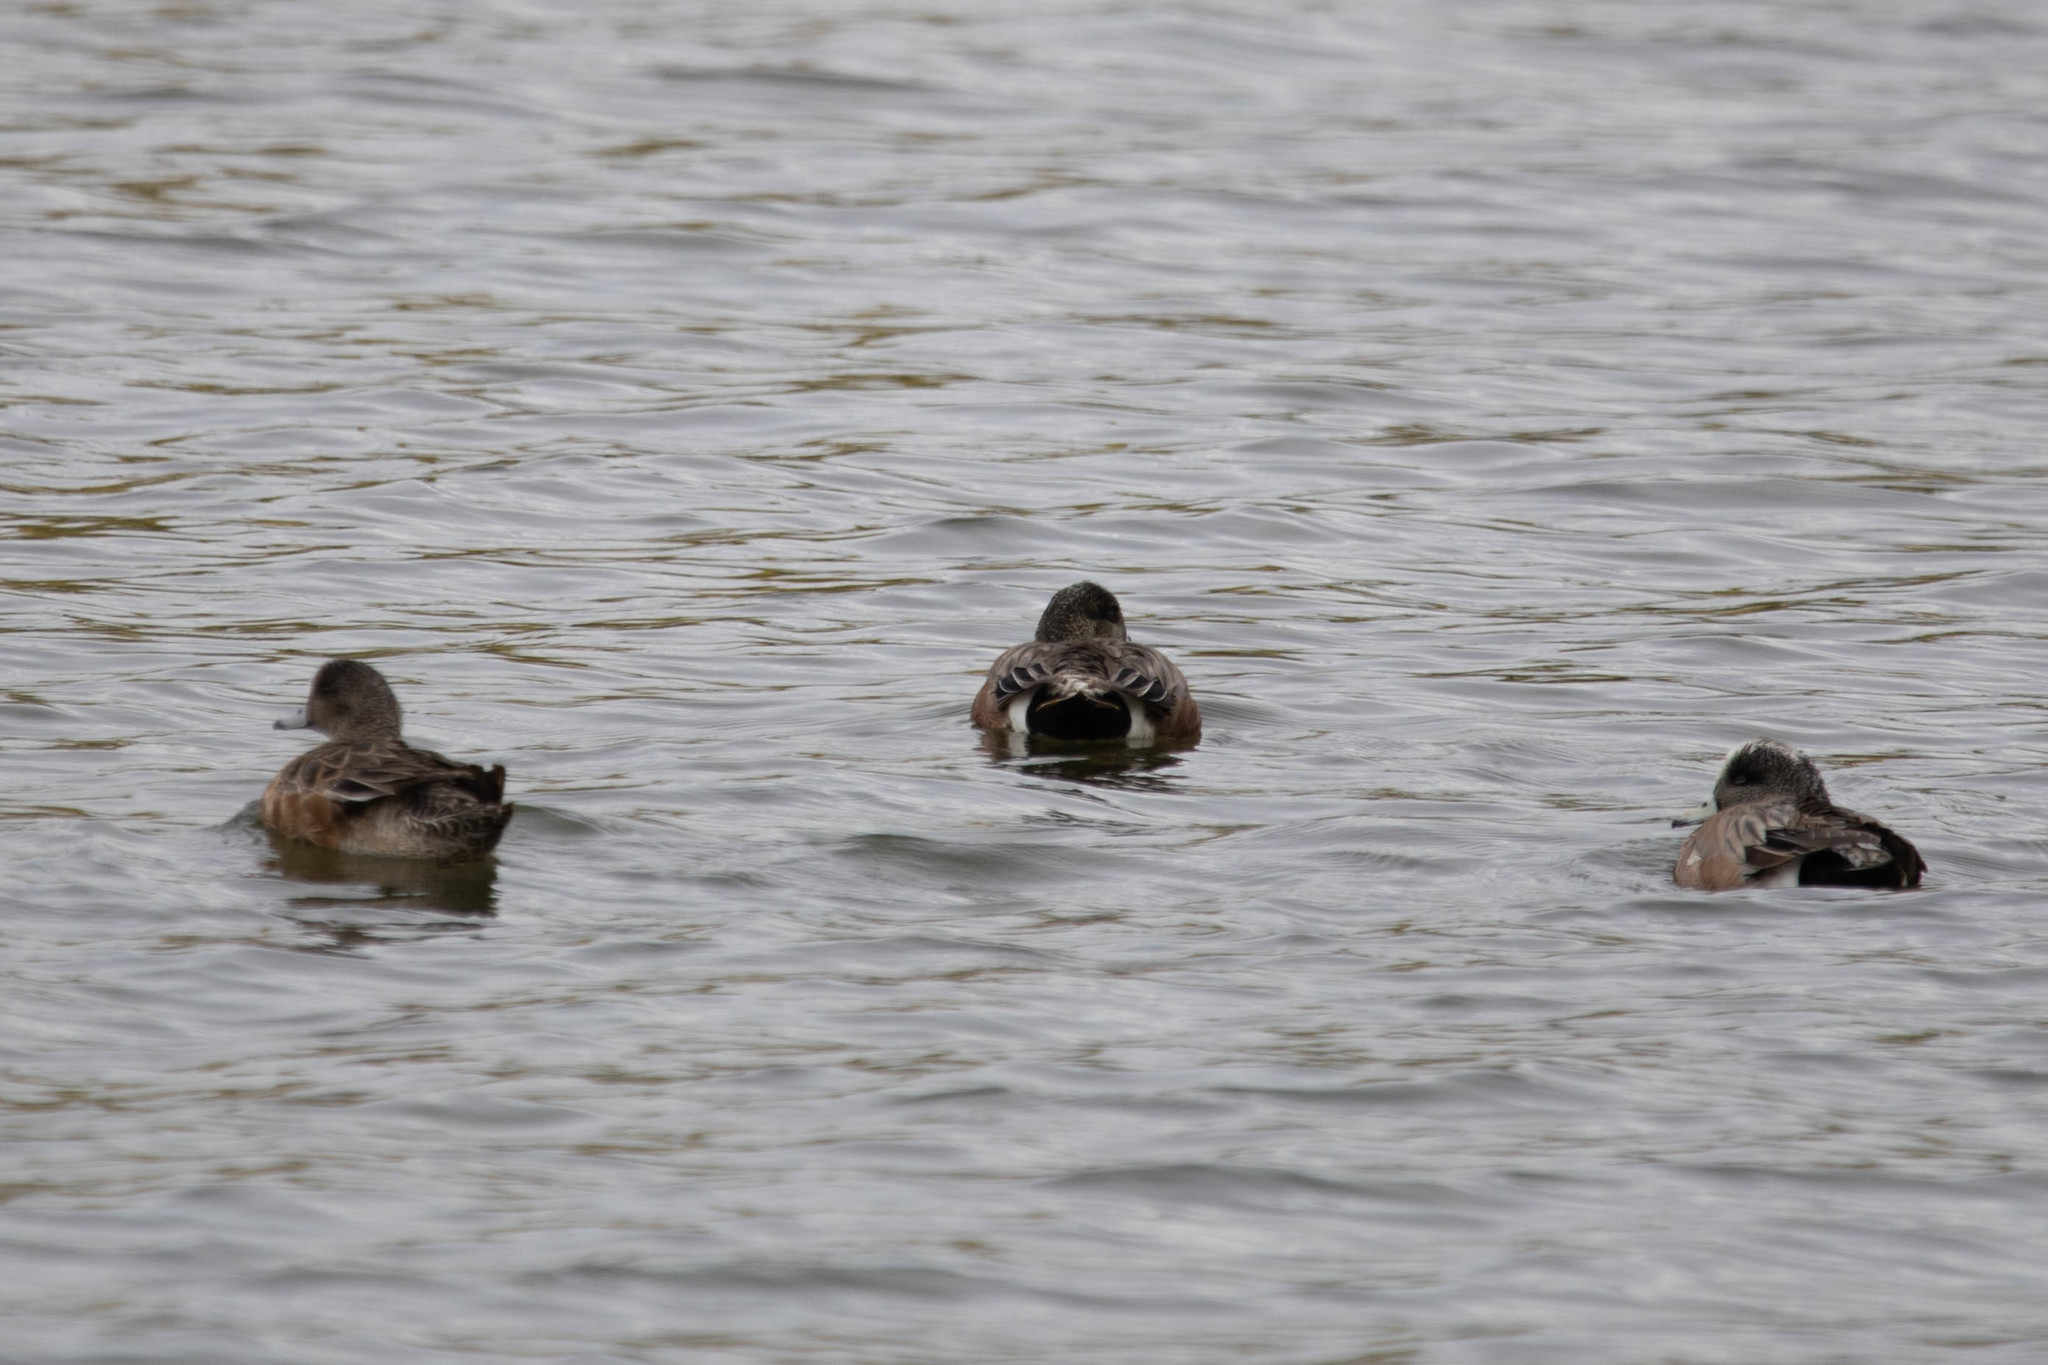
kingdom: Animalia
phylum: Chordata
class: Aves
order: Anseriformes
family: Anatidae
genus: Mareca
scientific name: Mareca americana
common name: American wigeon
